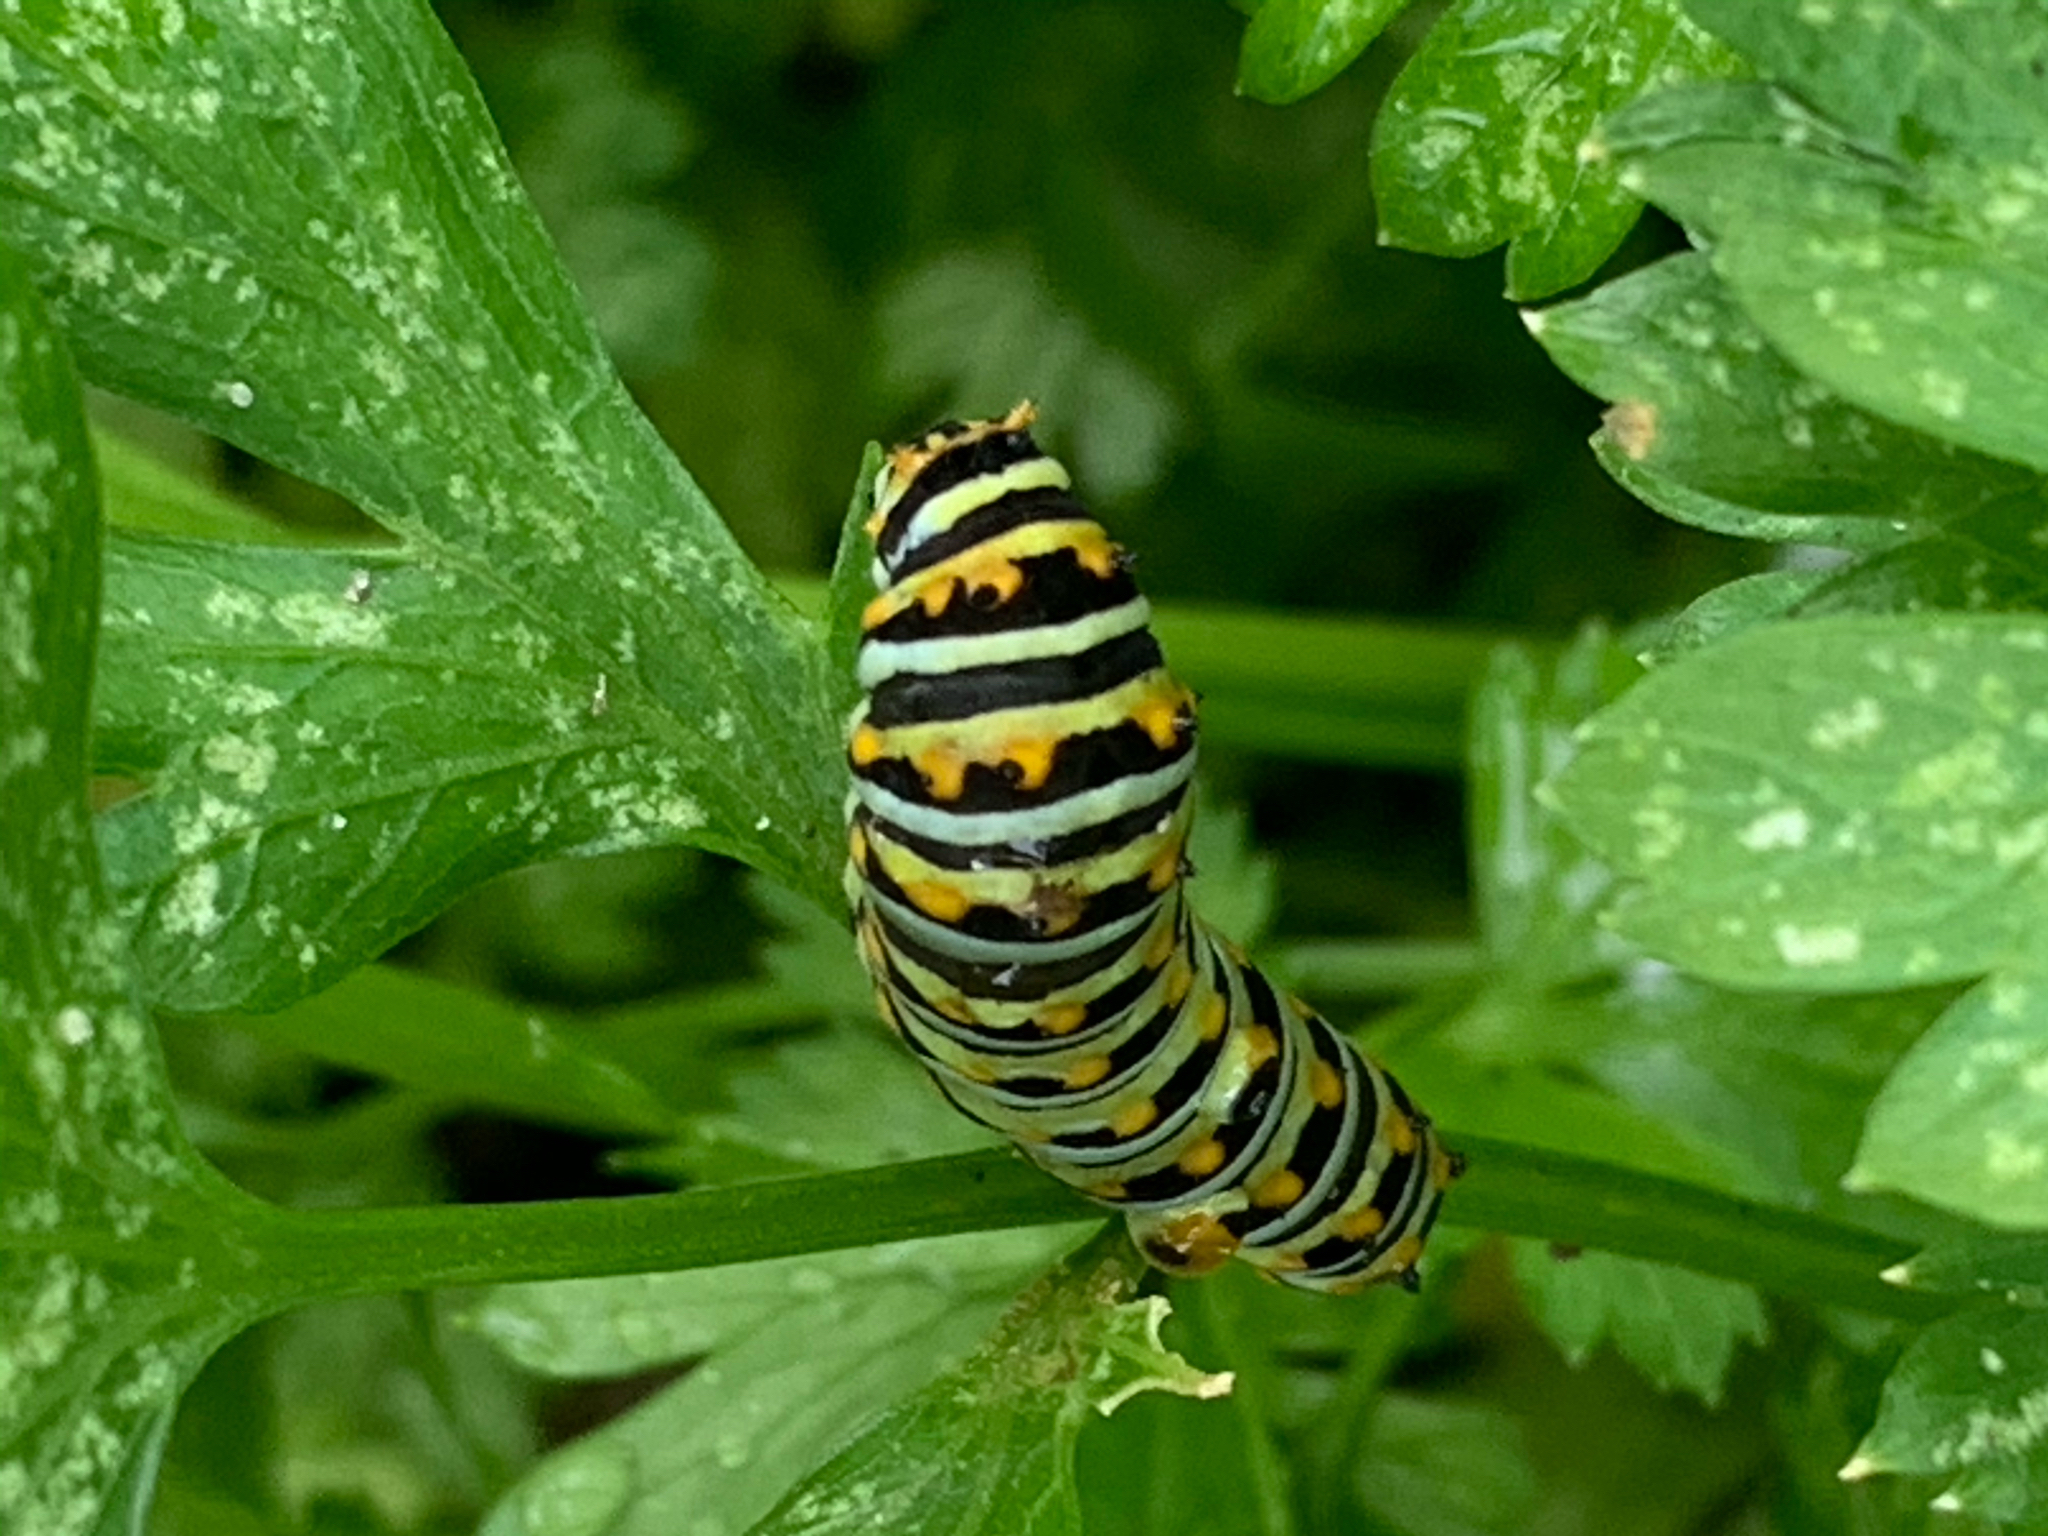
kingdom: Animalia
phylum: Arthropoda
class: Insecta
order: Lepidoptera
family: Papilionidae
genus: Papilio
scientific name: Papilio polyxenes
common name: Black swallowtail
